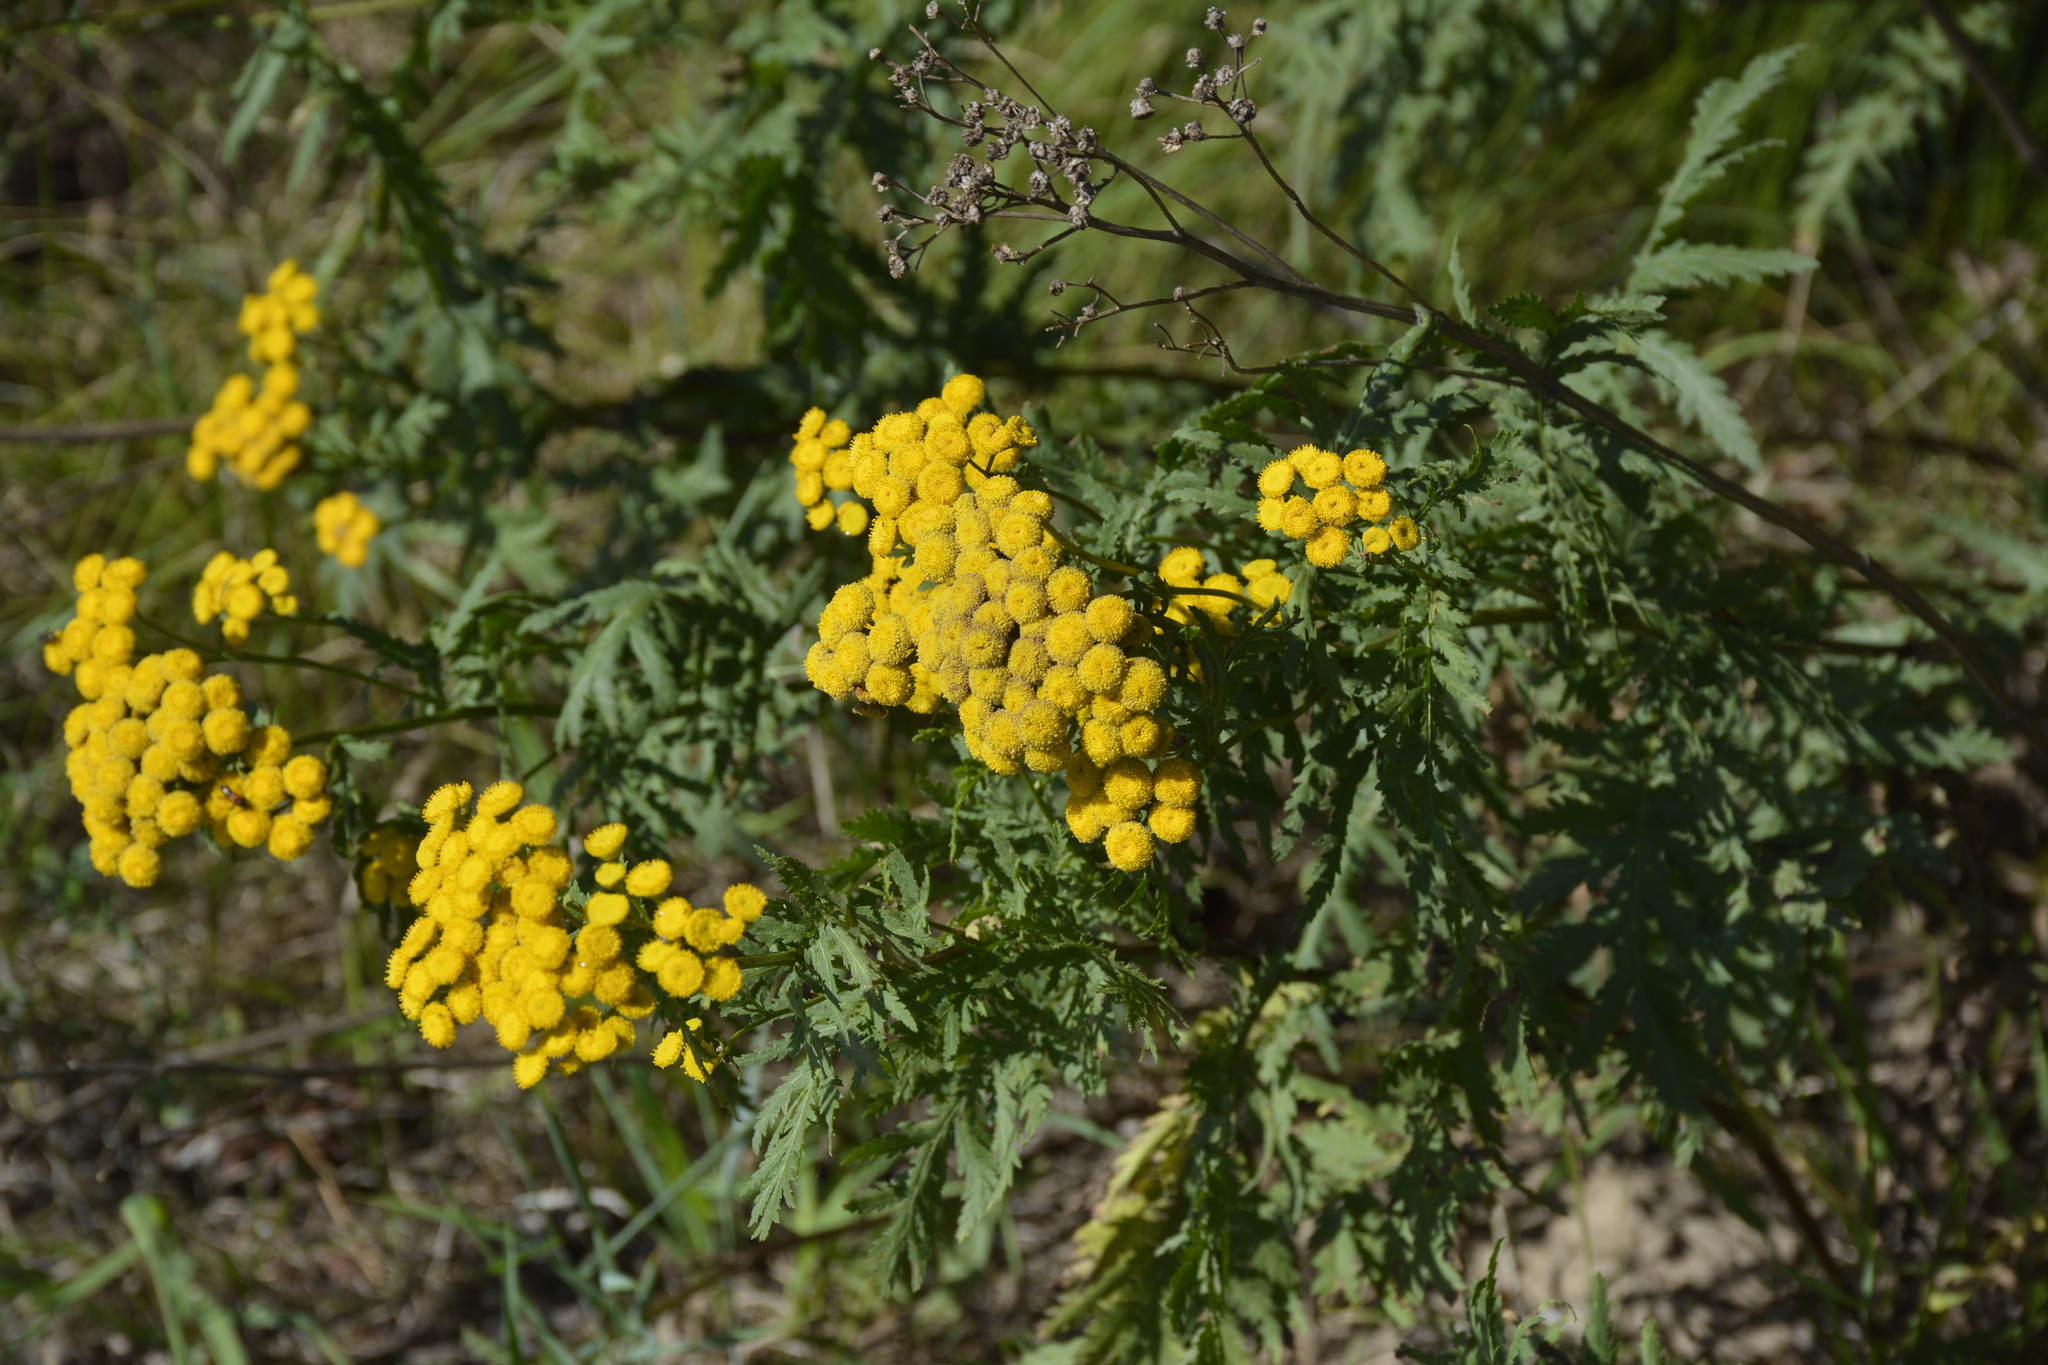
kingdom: Plantae
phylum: Tracheophyta
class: Magnoliopsida
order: Asterales
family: Asteraceae
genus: Tanacetum
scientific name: Tanacetum vulgare
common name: Common tansy
